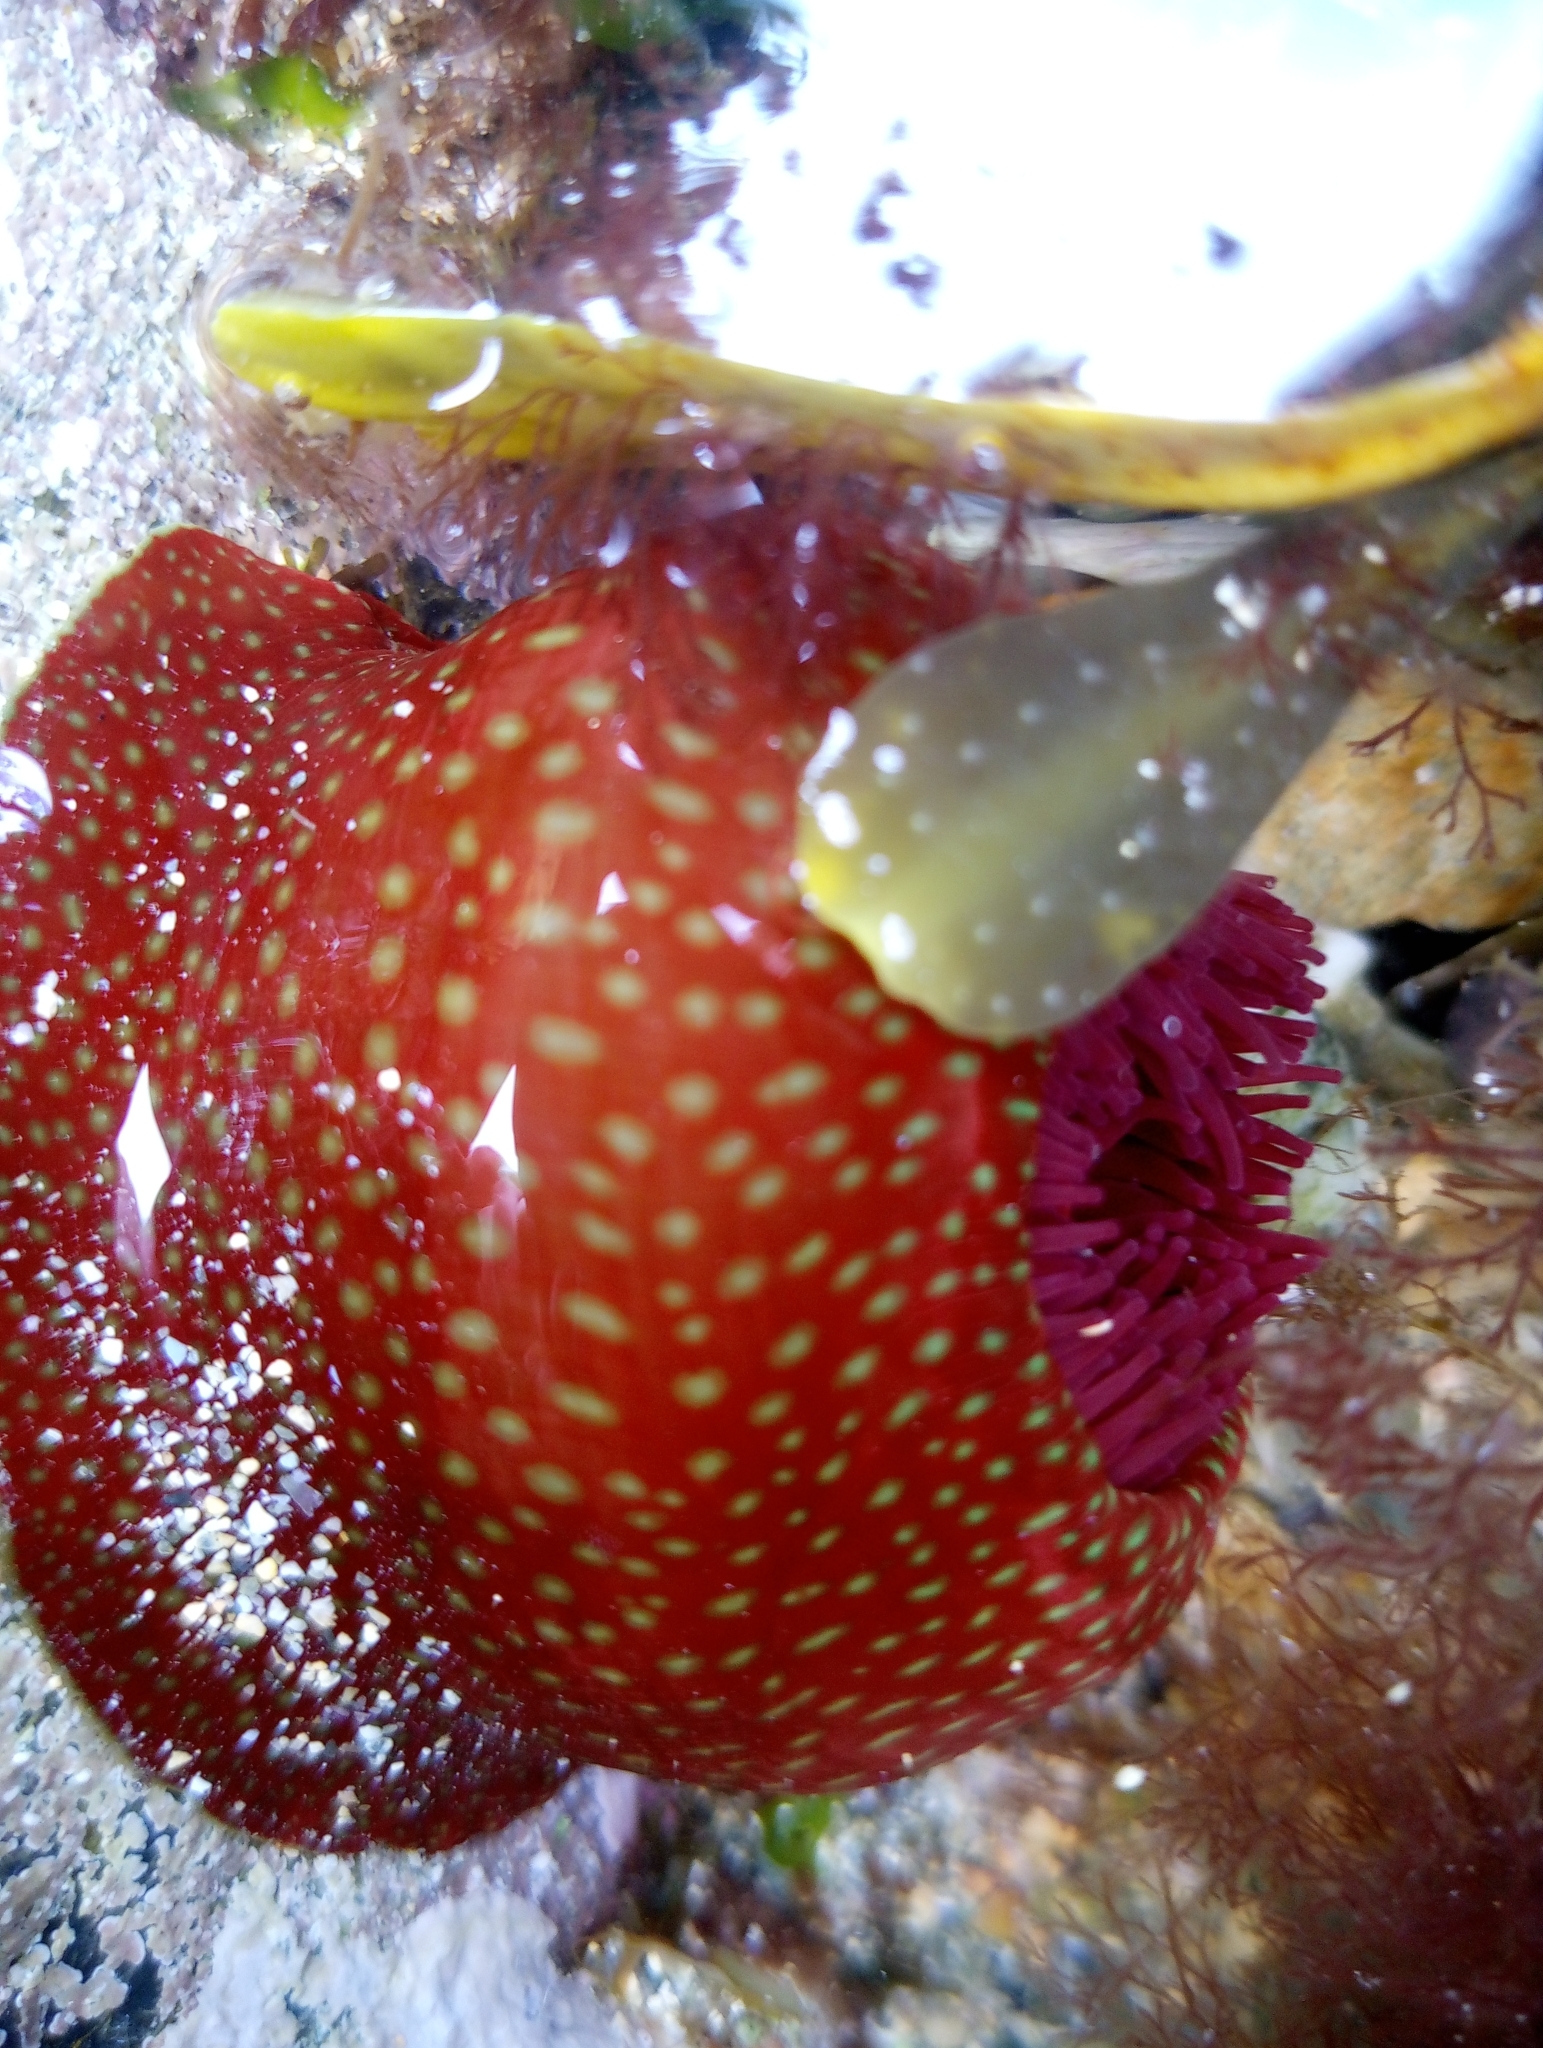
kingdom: Animalia
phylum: Cnidaria
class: Anthozoa
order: Actiniaria
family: Actiniidae
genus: Actinia
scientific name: Actinia fragacea
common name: Strawberry anemone
